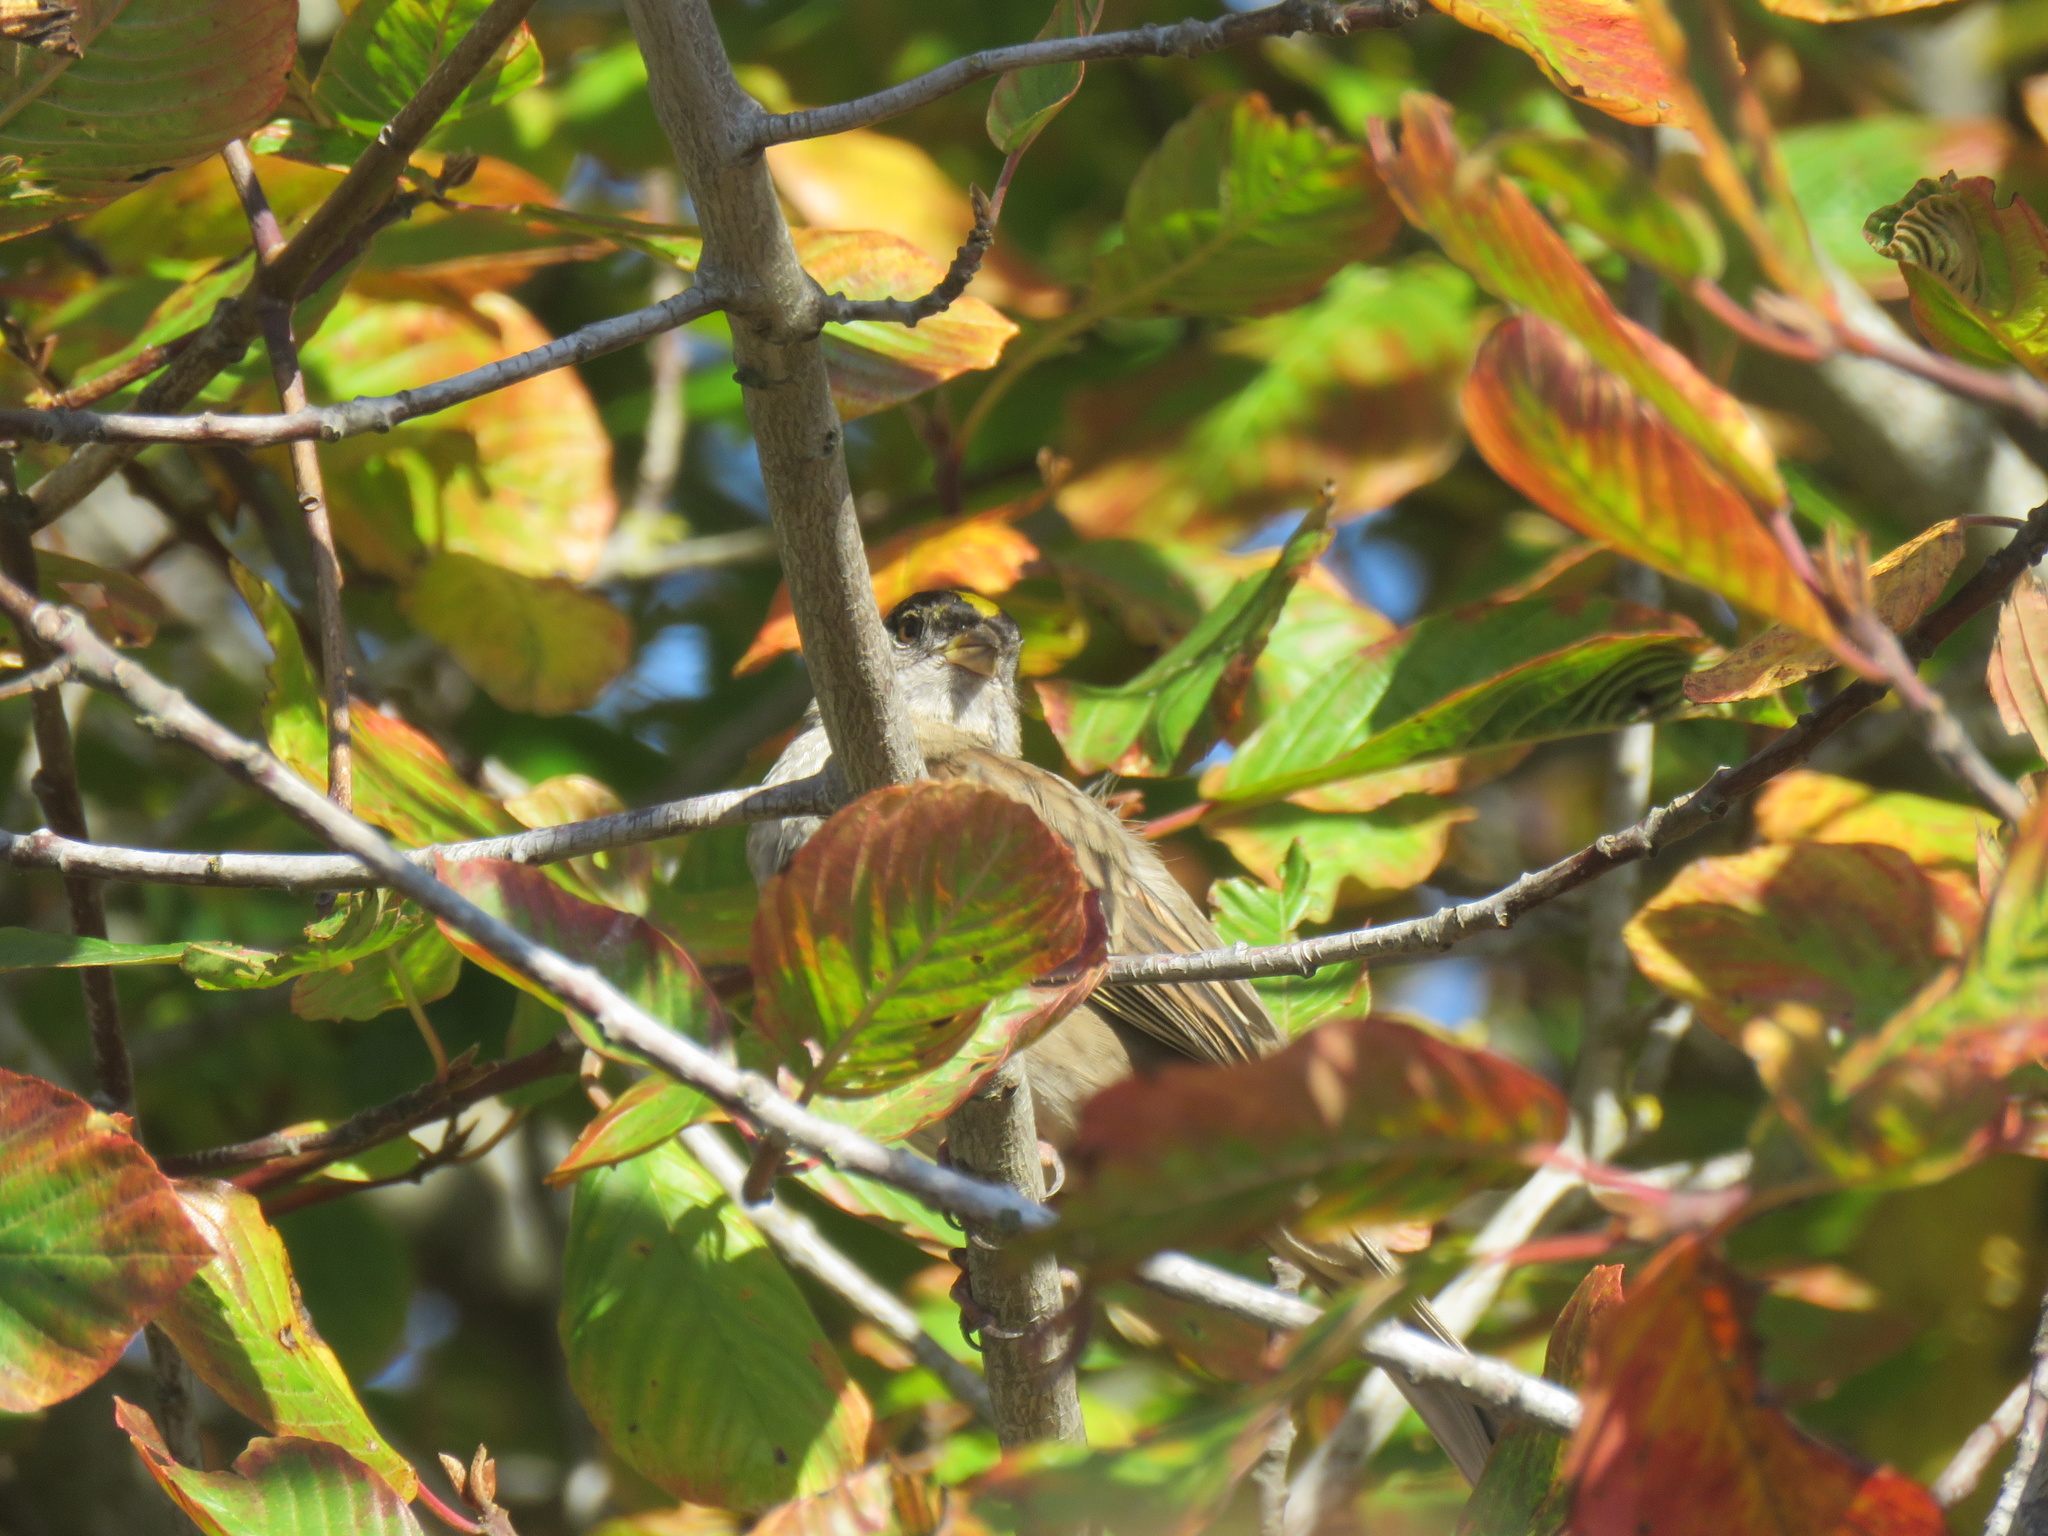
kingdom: Animalia
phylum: Chordata
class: Aves
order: Passeriformes
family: Passerellidae
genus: Zonotrichia
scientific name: Zonotrichia atricapilla
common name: Golden-crowned sparrow
